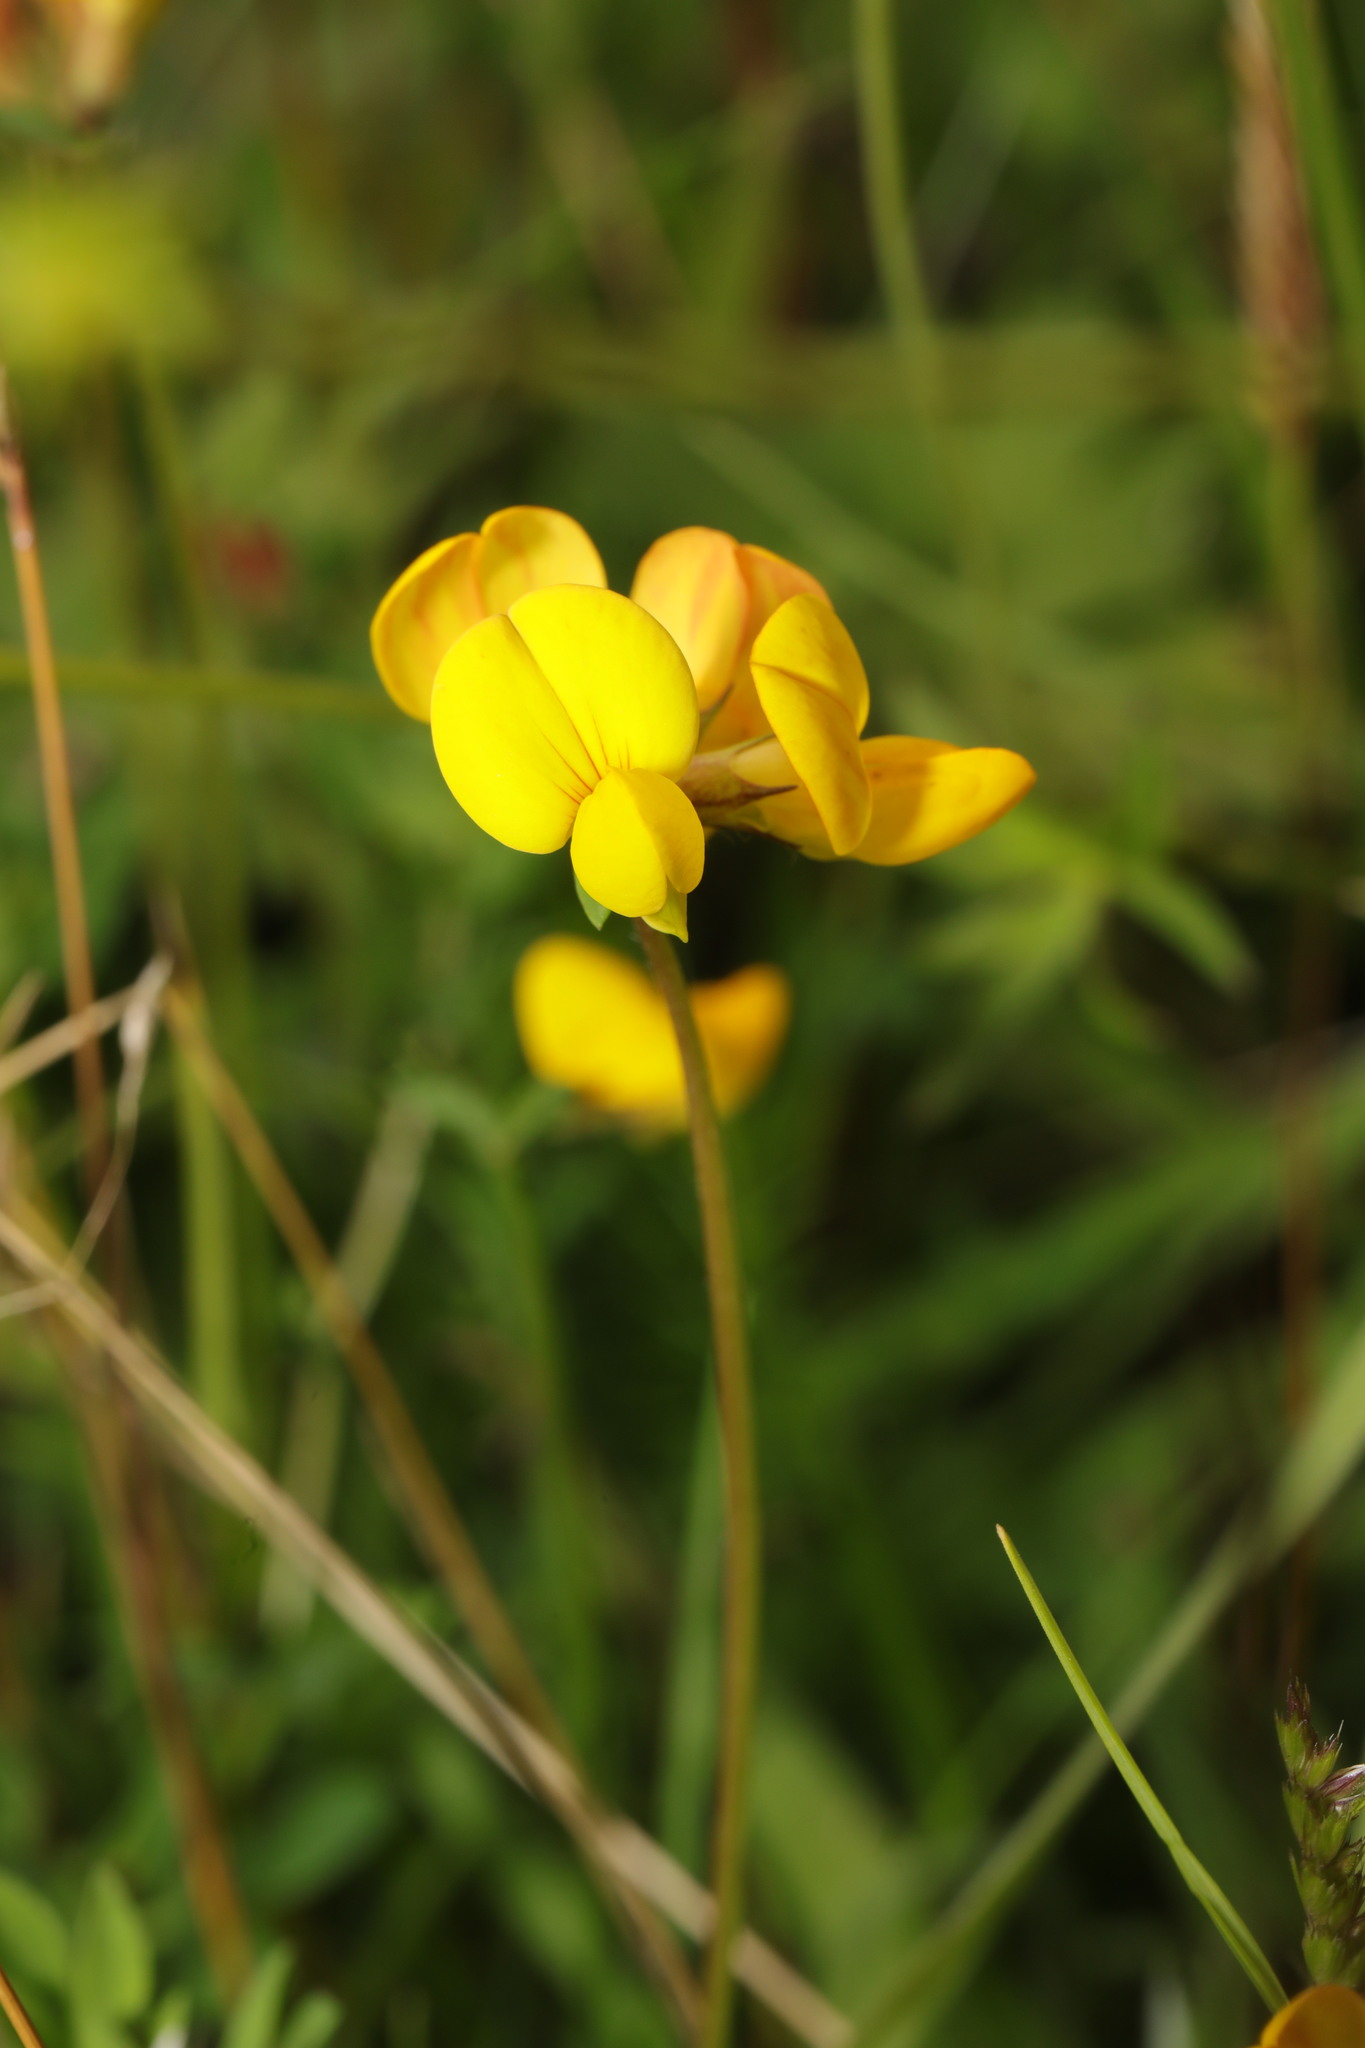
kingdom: Plantae
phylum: Tracheophyta
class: Magnoliopsida
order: Fabales
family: Fabaceae
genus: Lotus
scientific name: Lotus corniculatus
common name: Common bird's-foot-trefoil
